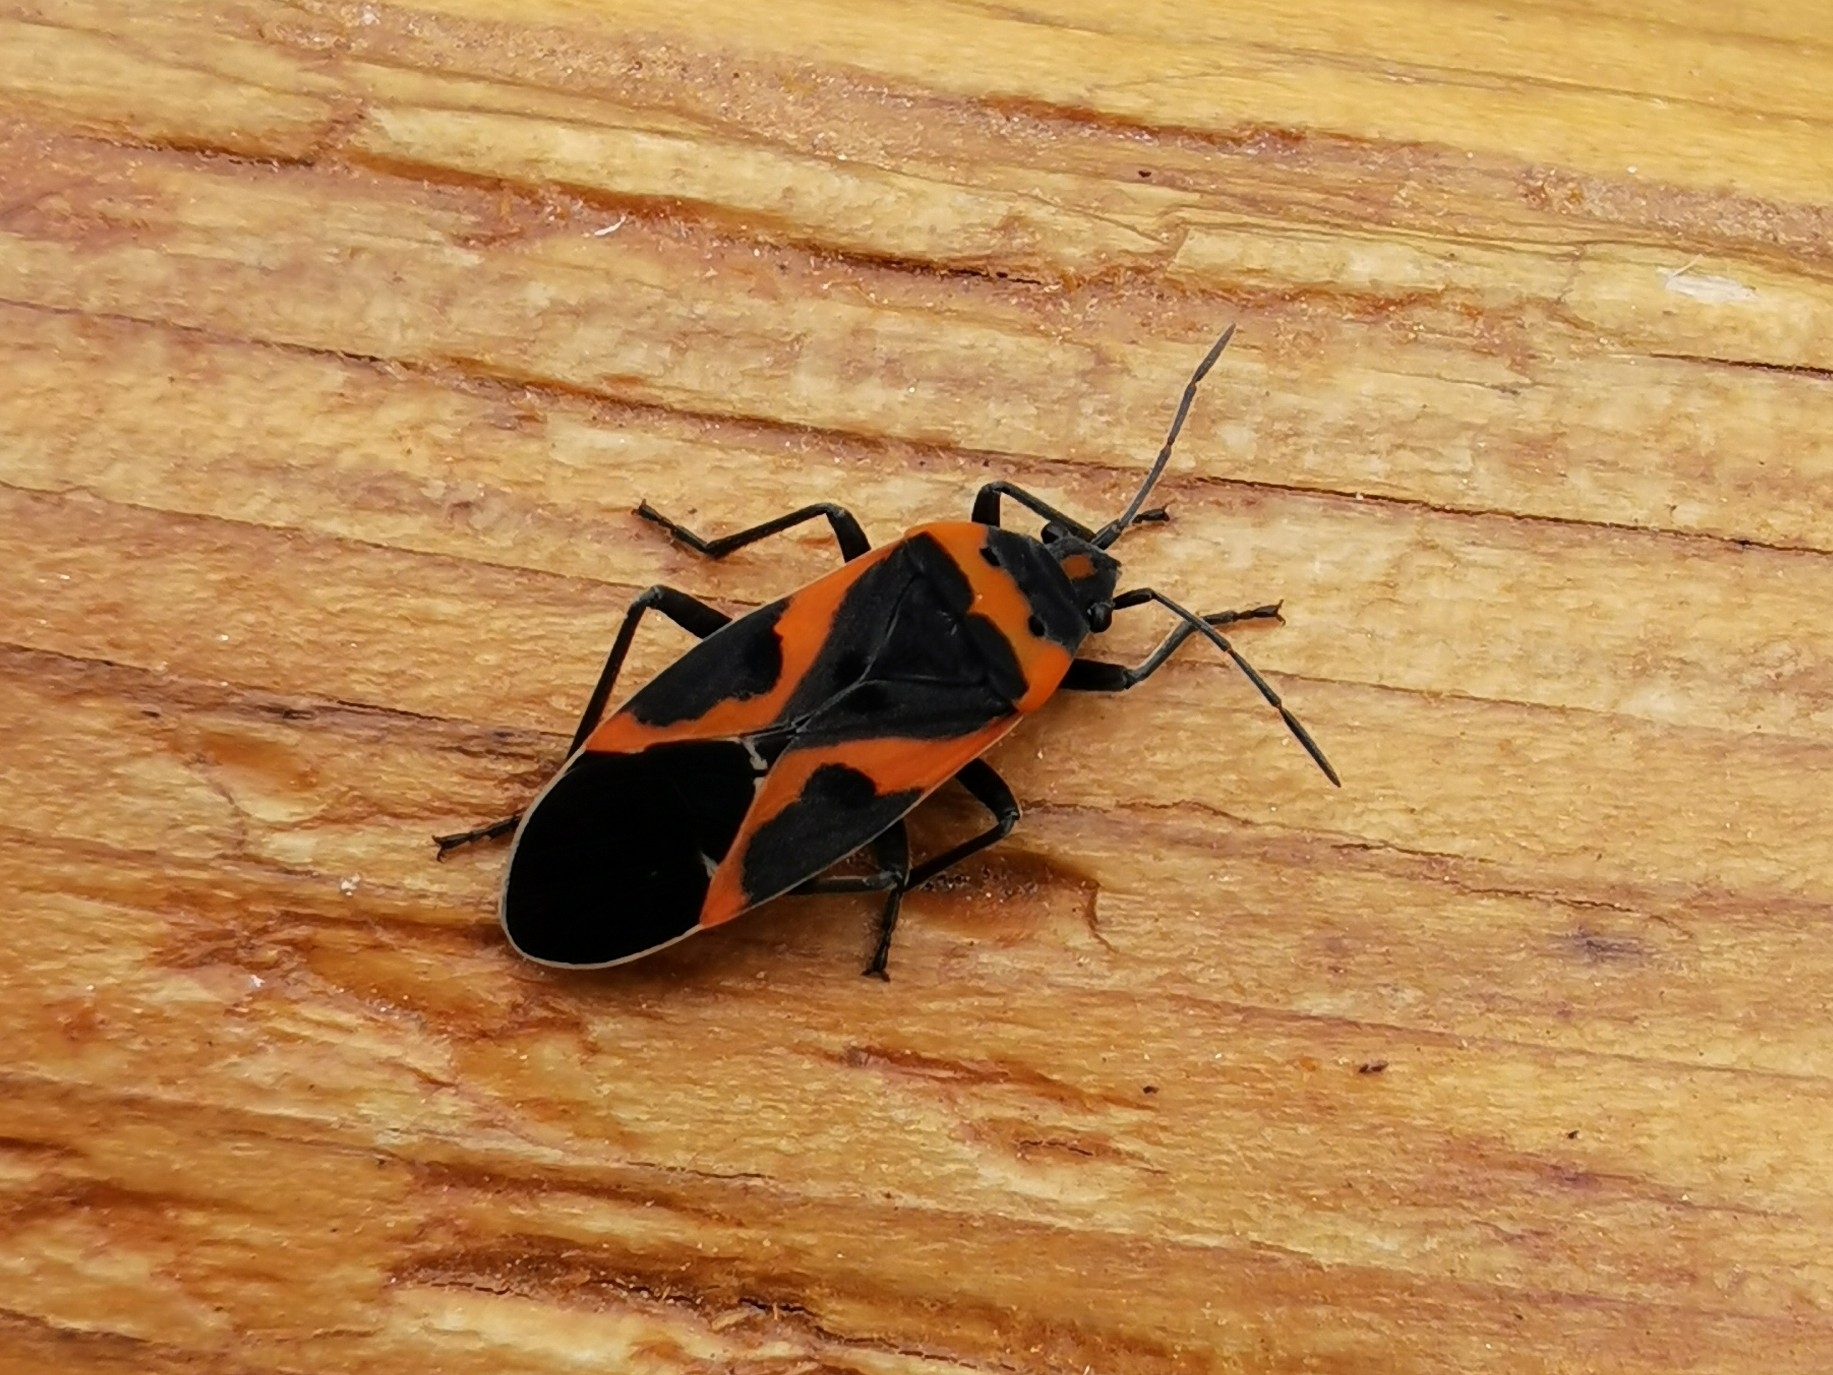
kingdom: Animalia
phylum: Arthropoda
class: Insecta
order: Hemiptera
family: Lygaeidae
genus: Lygaeus
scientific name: Lygaeus kalmii
